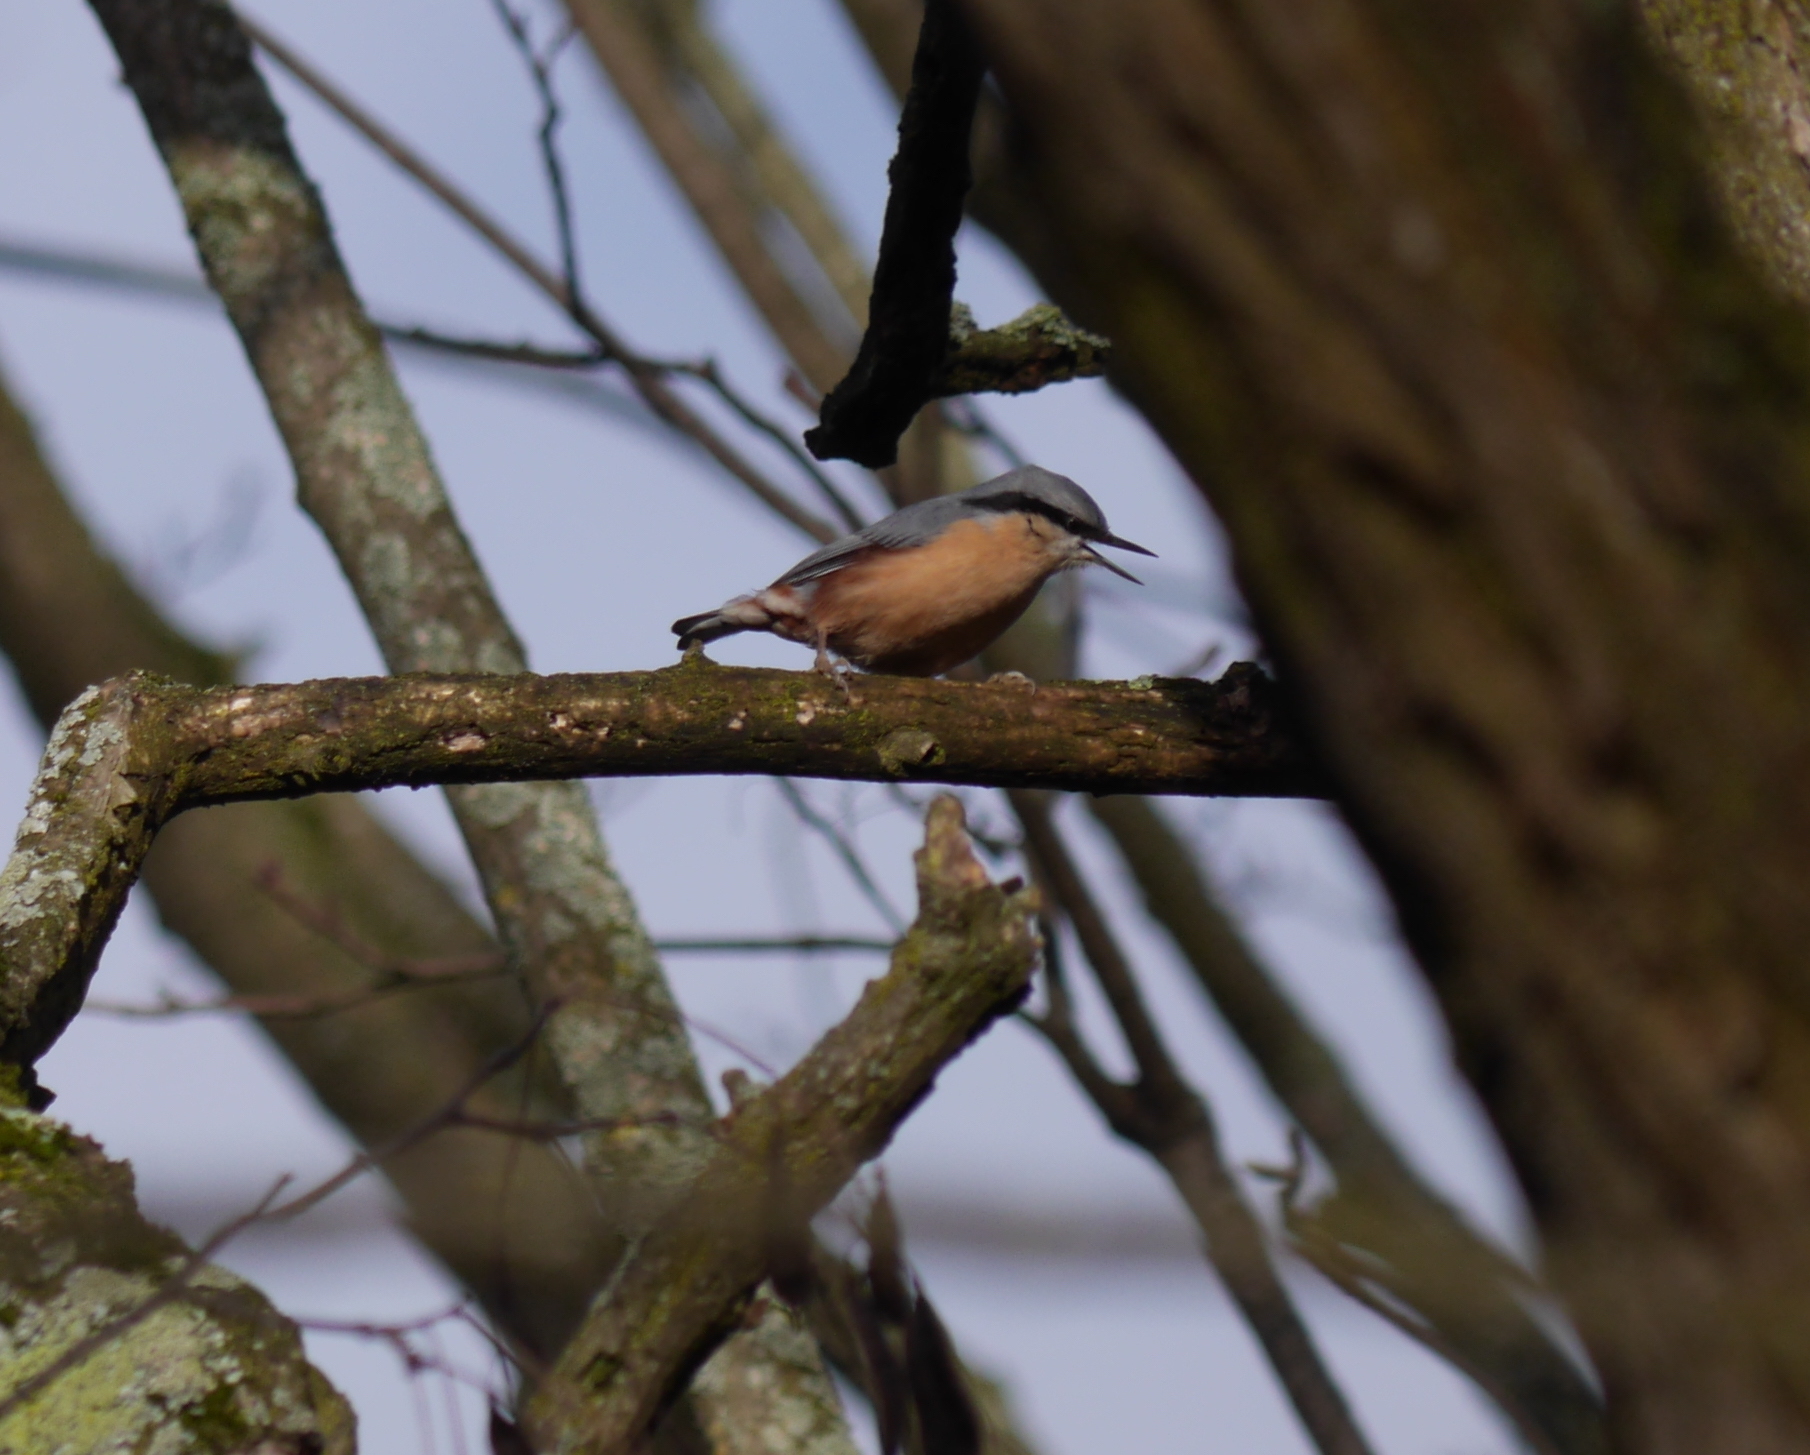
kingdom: Animalia
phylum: Chordata
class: Aves
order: Passeriformes
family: Sittidae
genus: Sitta
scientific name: Sitta europaea
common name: Eurasian nuthatch
